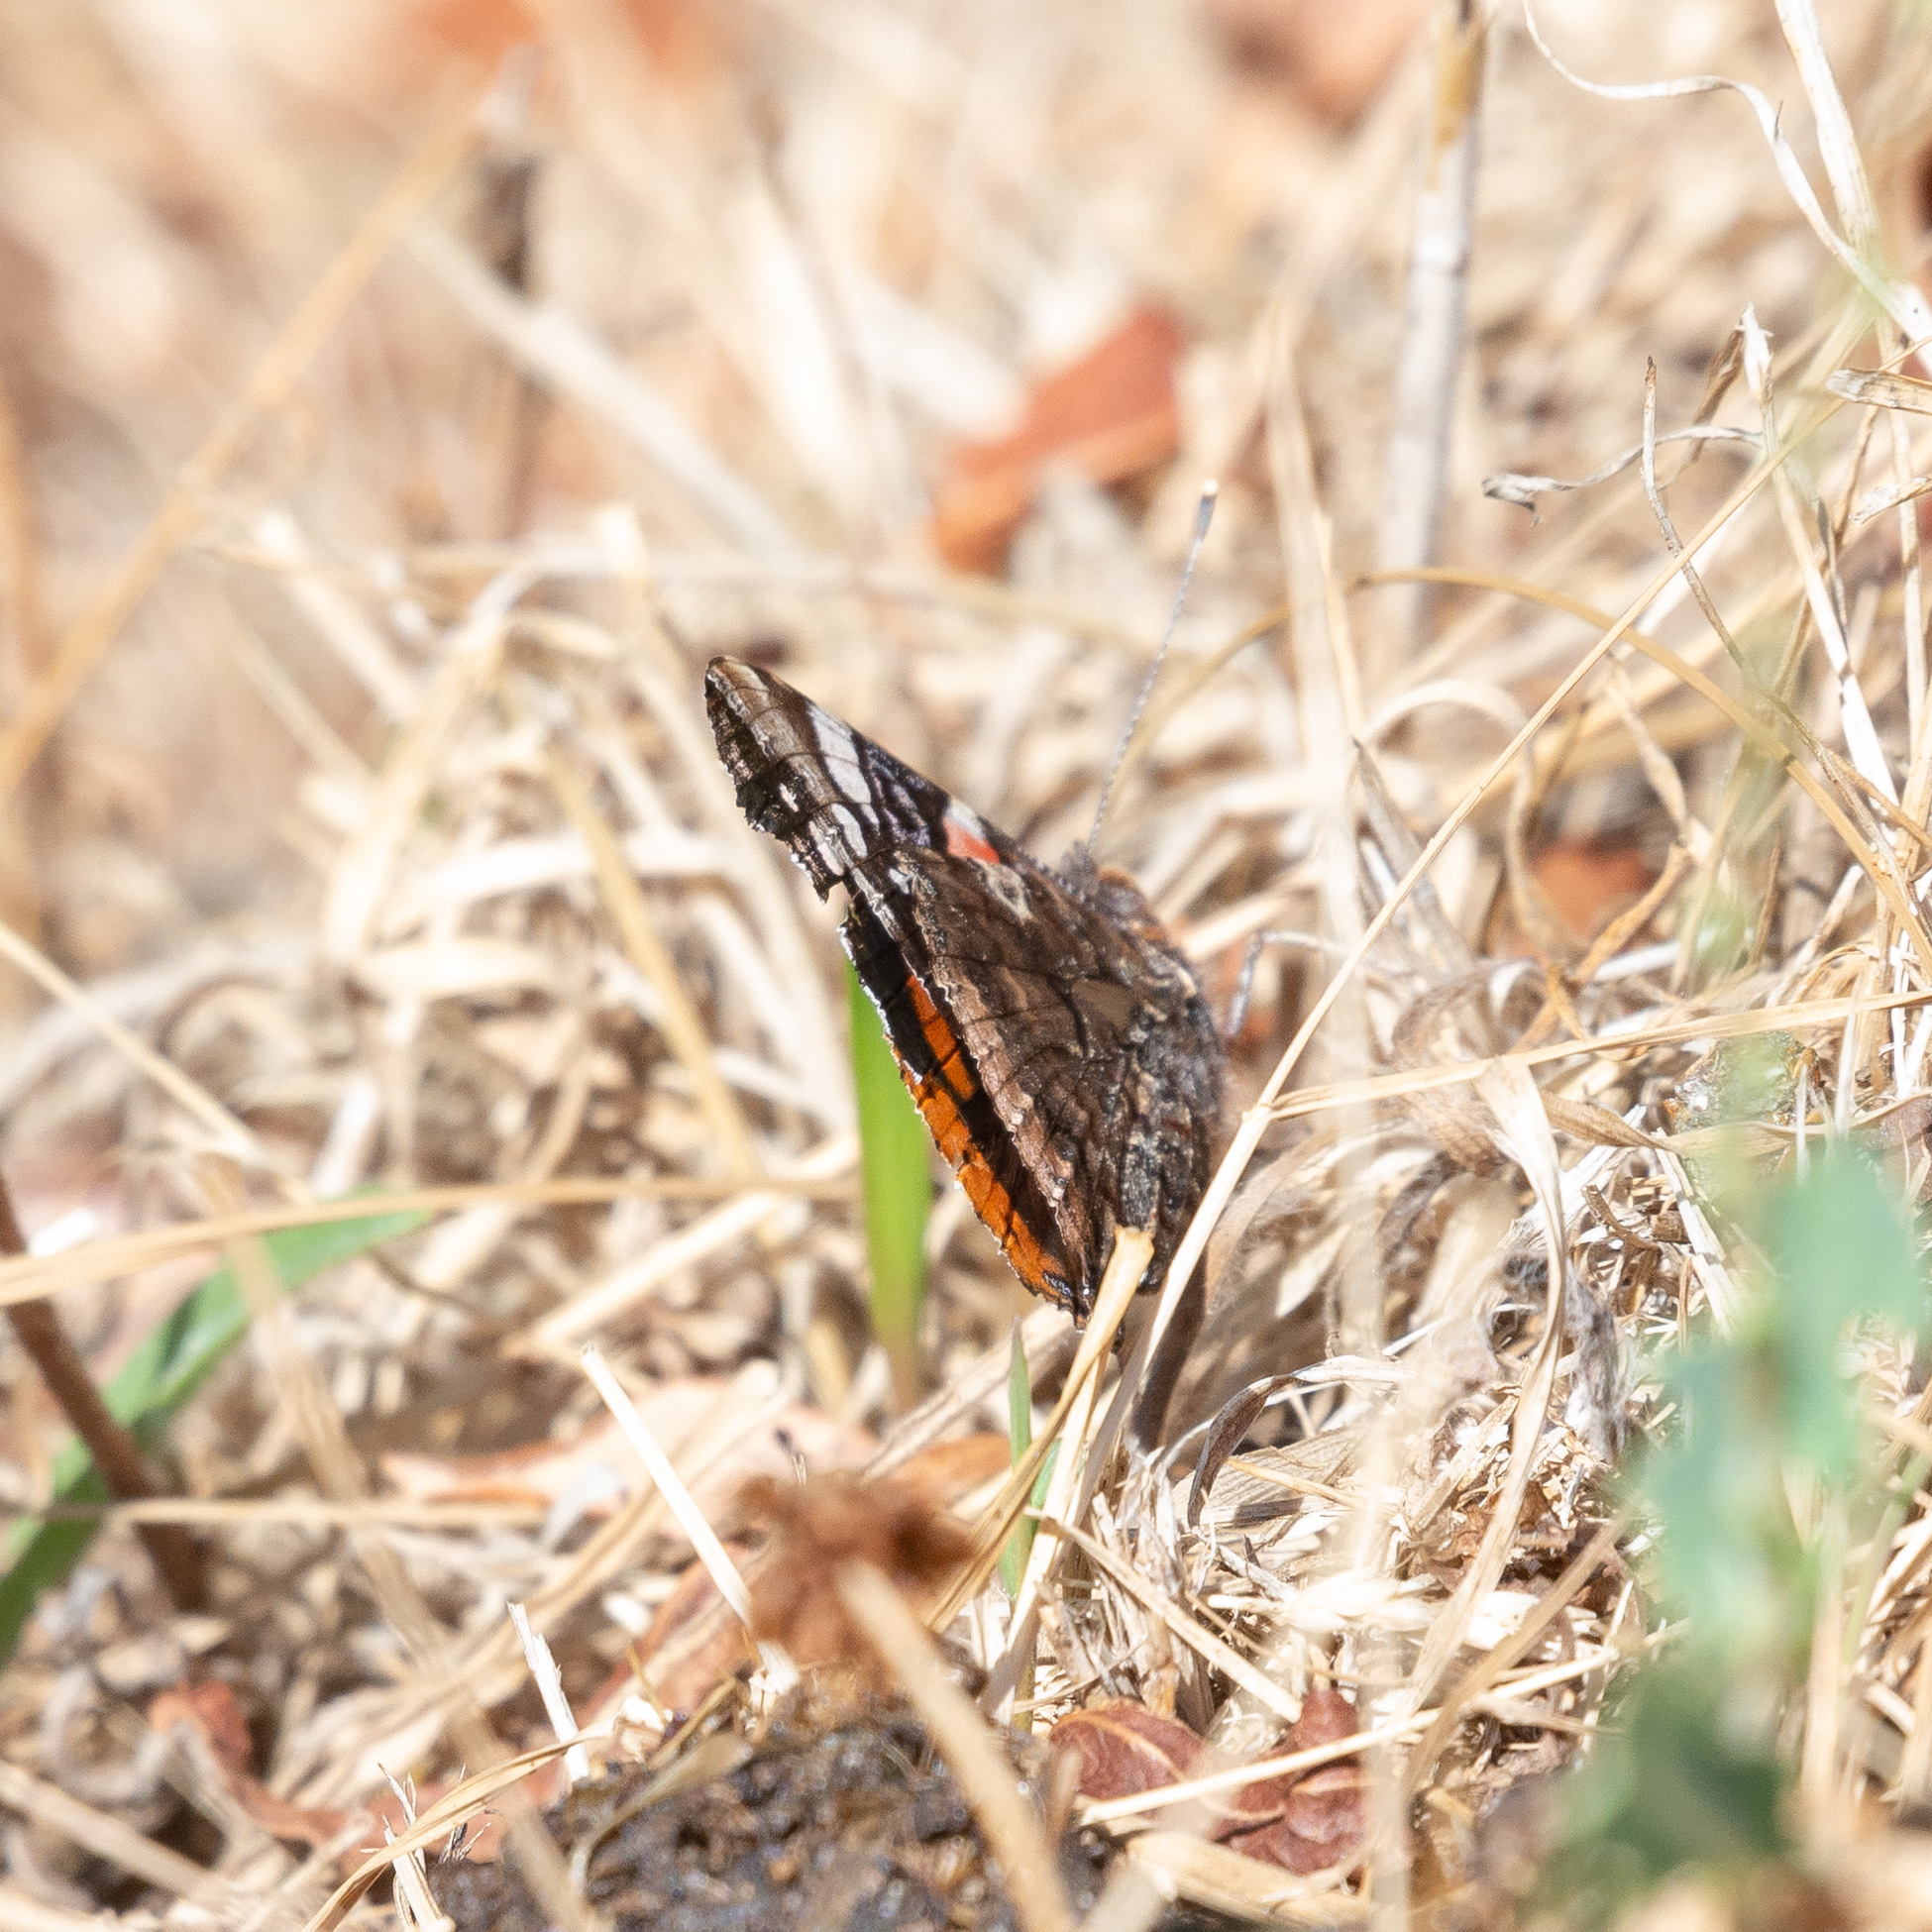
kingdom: Animalia
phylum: Arthropoda
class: Insecta
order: Lepidoptera
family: Nymphalidae
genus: Vanessa
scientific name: Vanessa atalanta
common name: Red admiral
